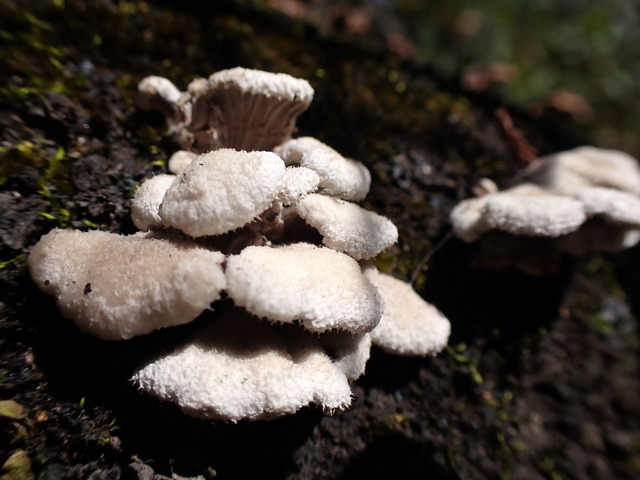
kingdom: Fungi
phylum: Basidiomycota
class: Agaricomycetes
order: Agaricales
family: Schizophyllaceae
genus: Schizophyllum
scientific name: Schizophyllum commune
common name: Common porecrust
